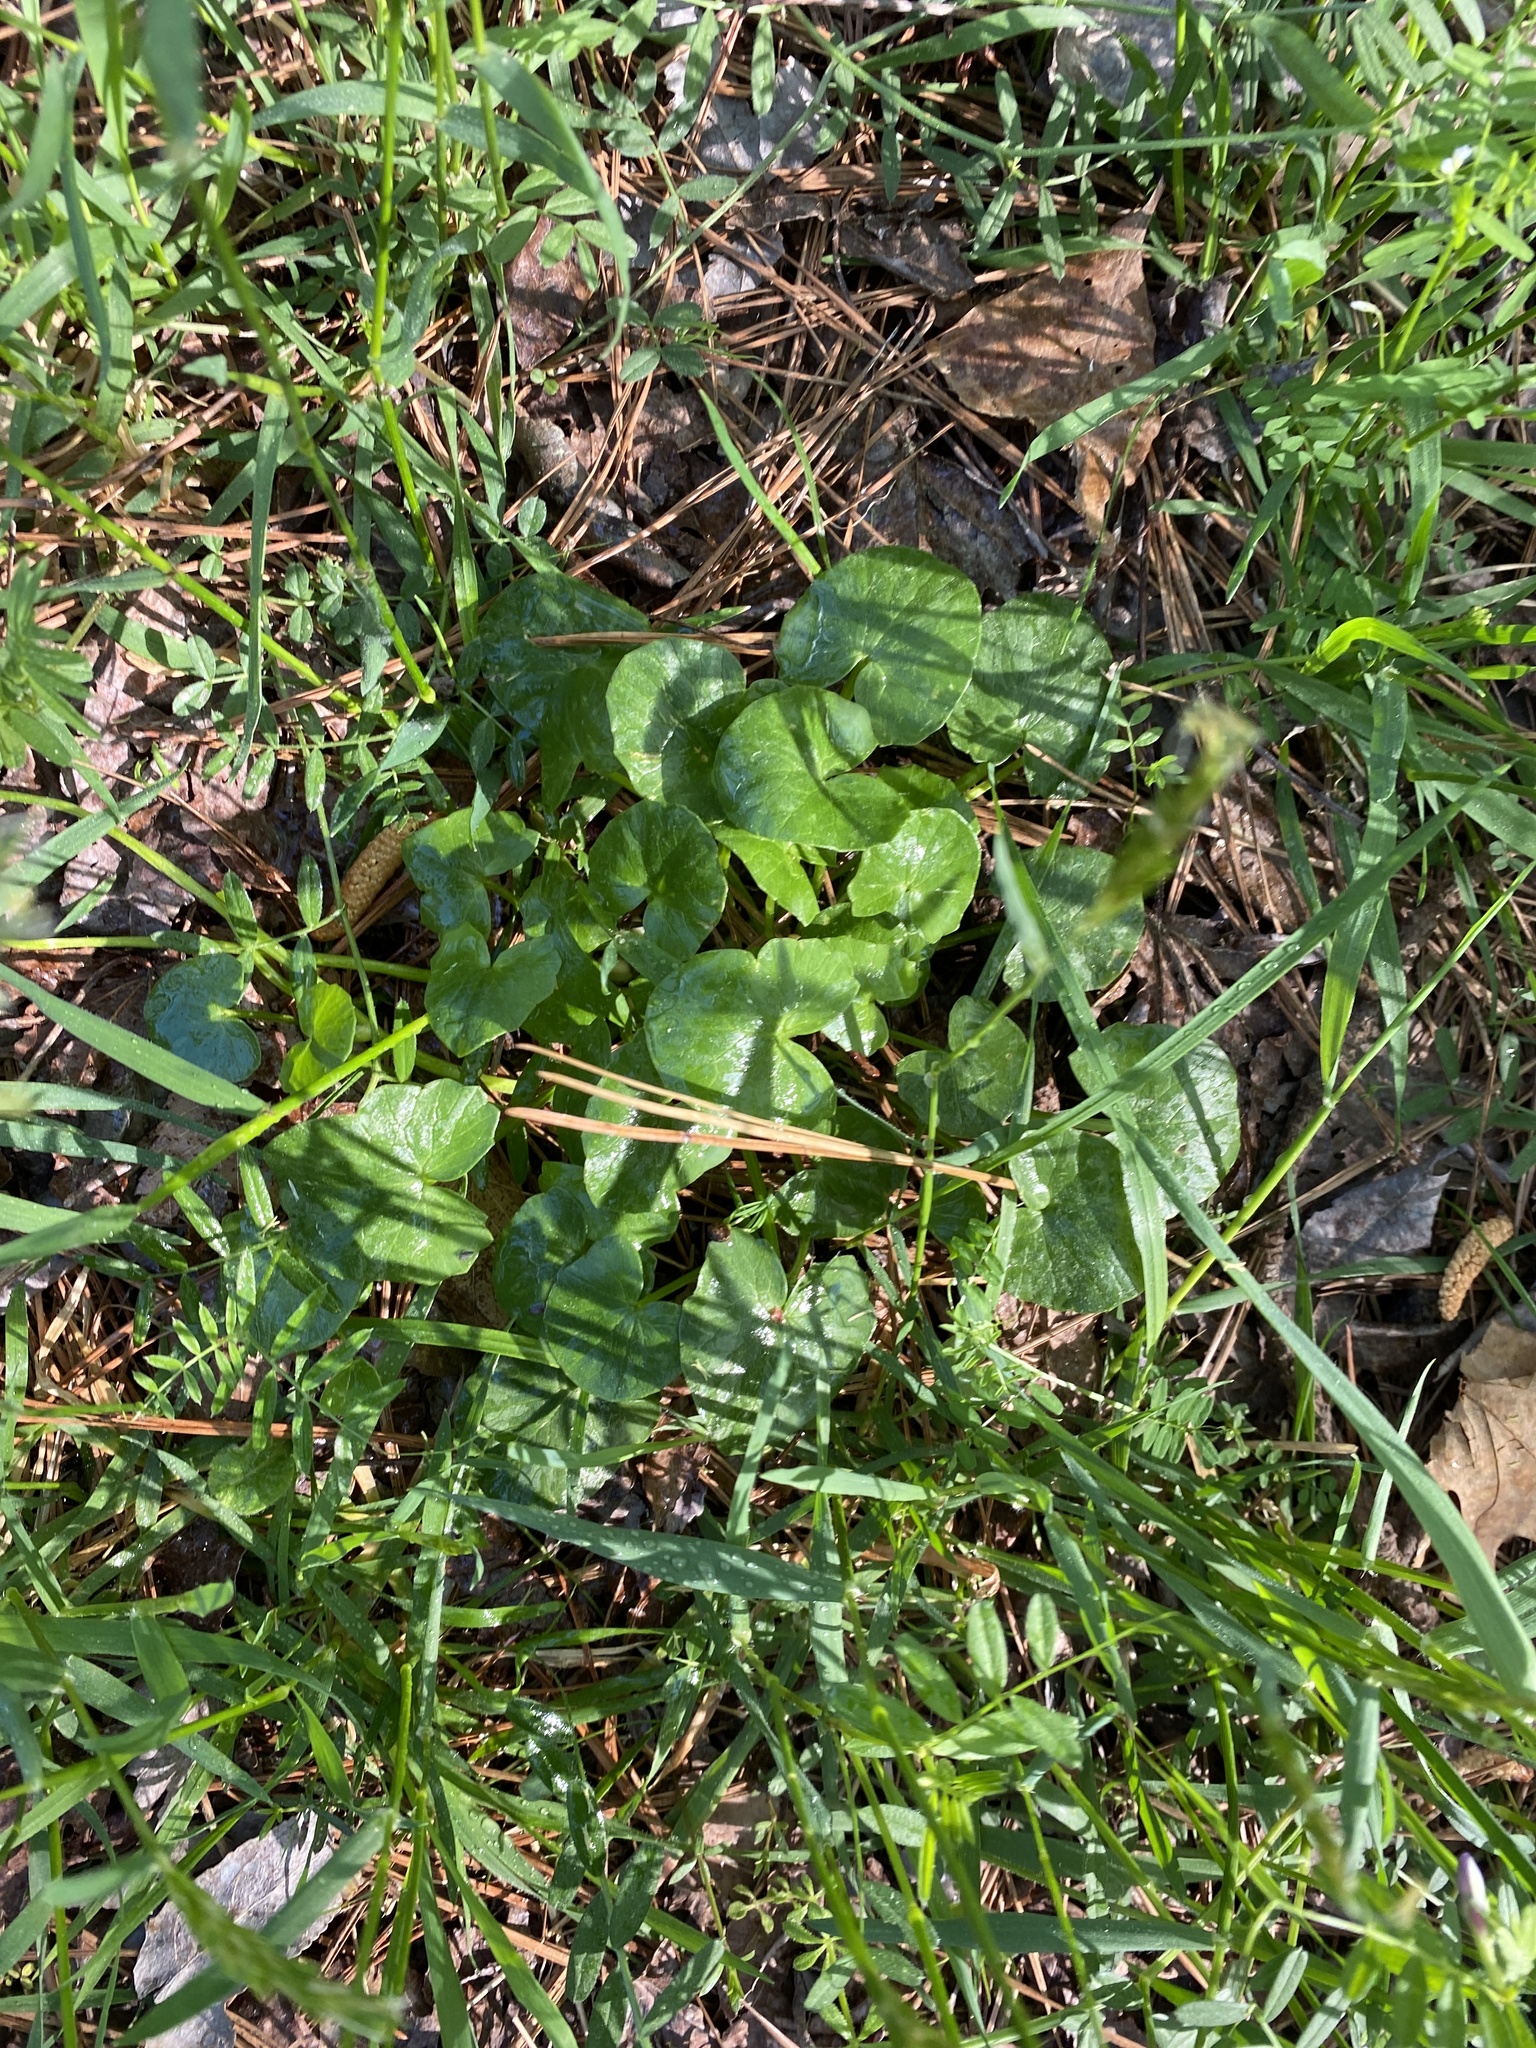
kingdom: Plantae
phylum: Tracheophyta
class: Magnoliopsida
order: Ranunculales
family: Ranunculaceae
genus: Ficaria
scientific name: Ficaria verna
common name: Lesser celandine
